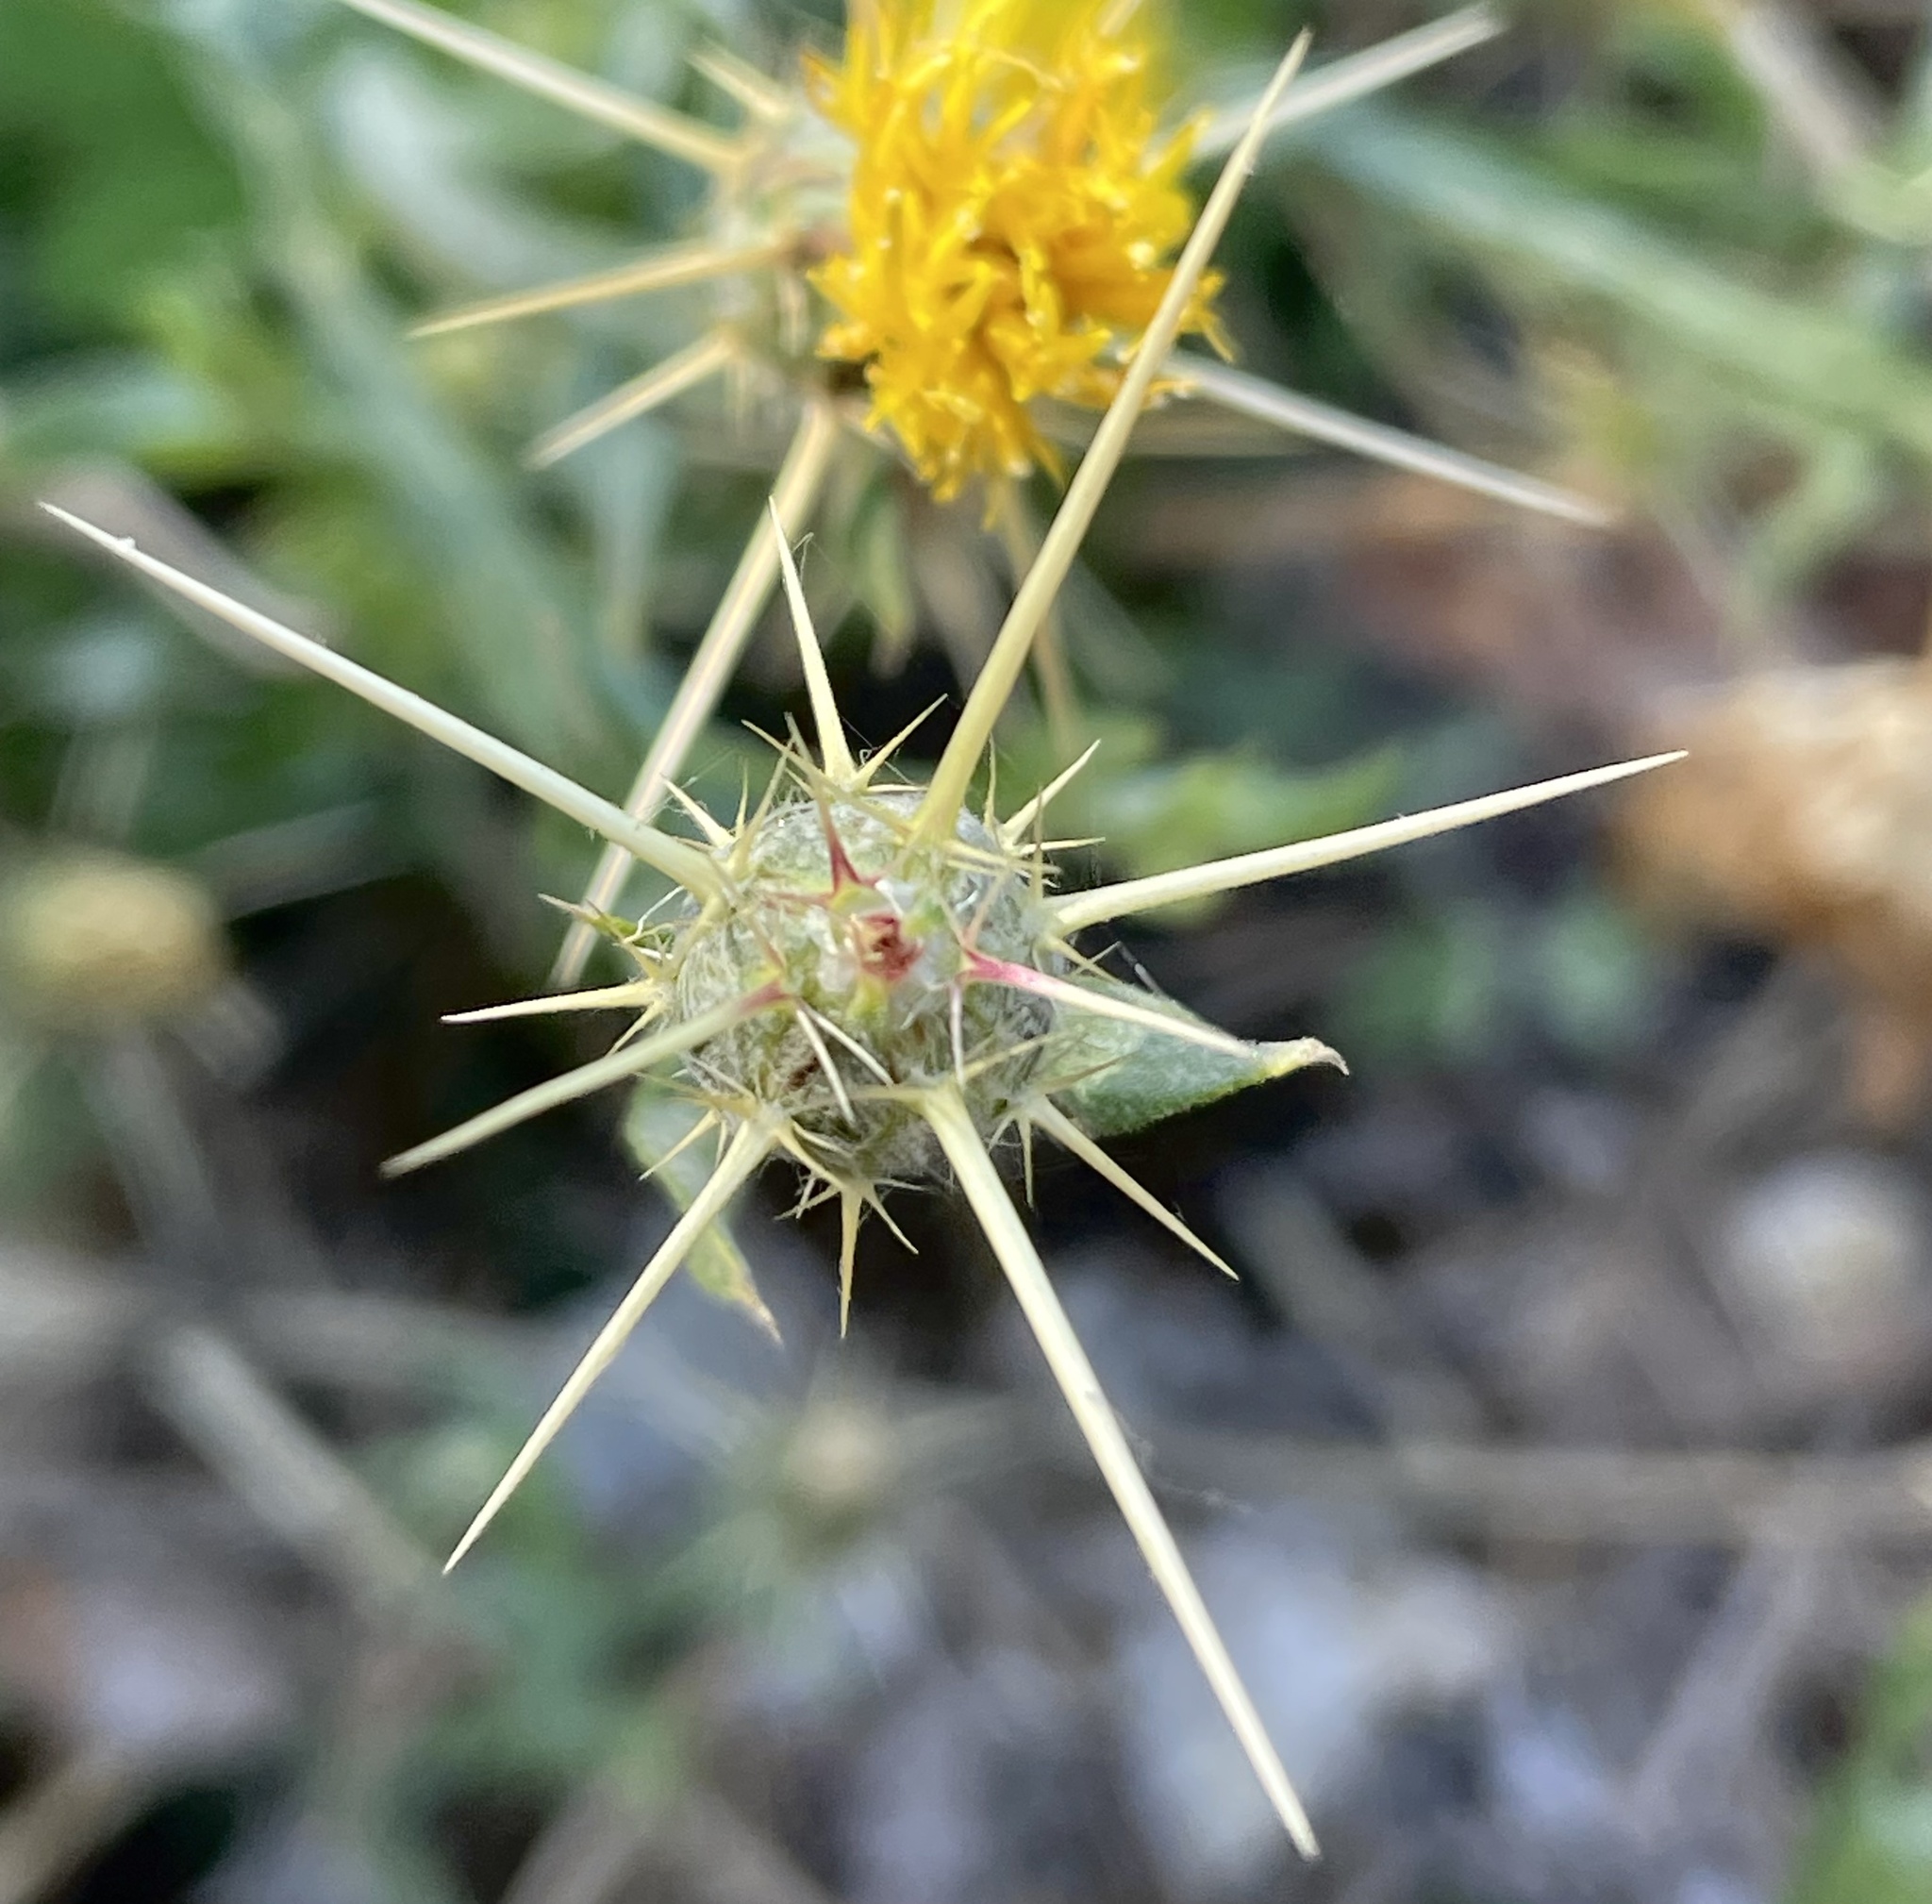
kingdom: Plantae
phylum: Tracheophyta
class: Magnoliopsida
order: Asterales
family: Asteraceae
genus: Centaurea
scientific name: Centaurea solstitialis
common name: Yellow star-thistle
